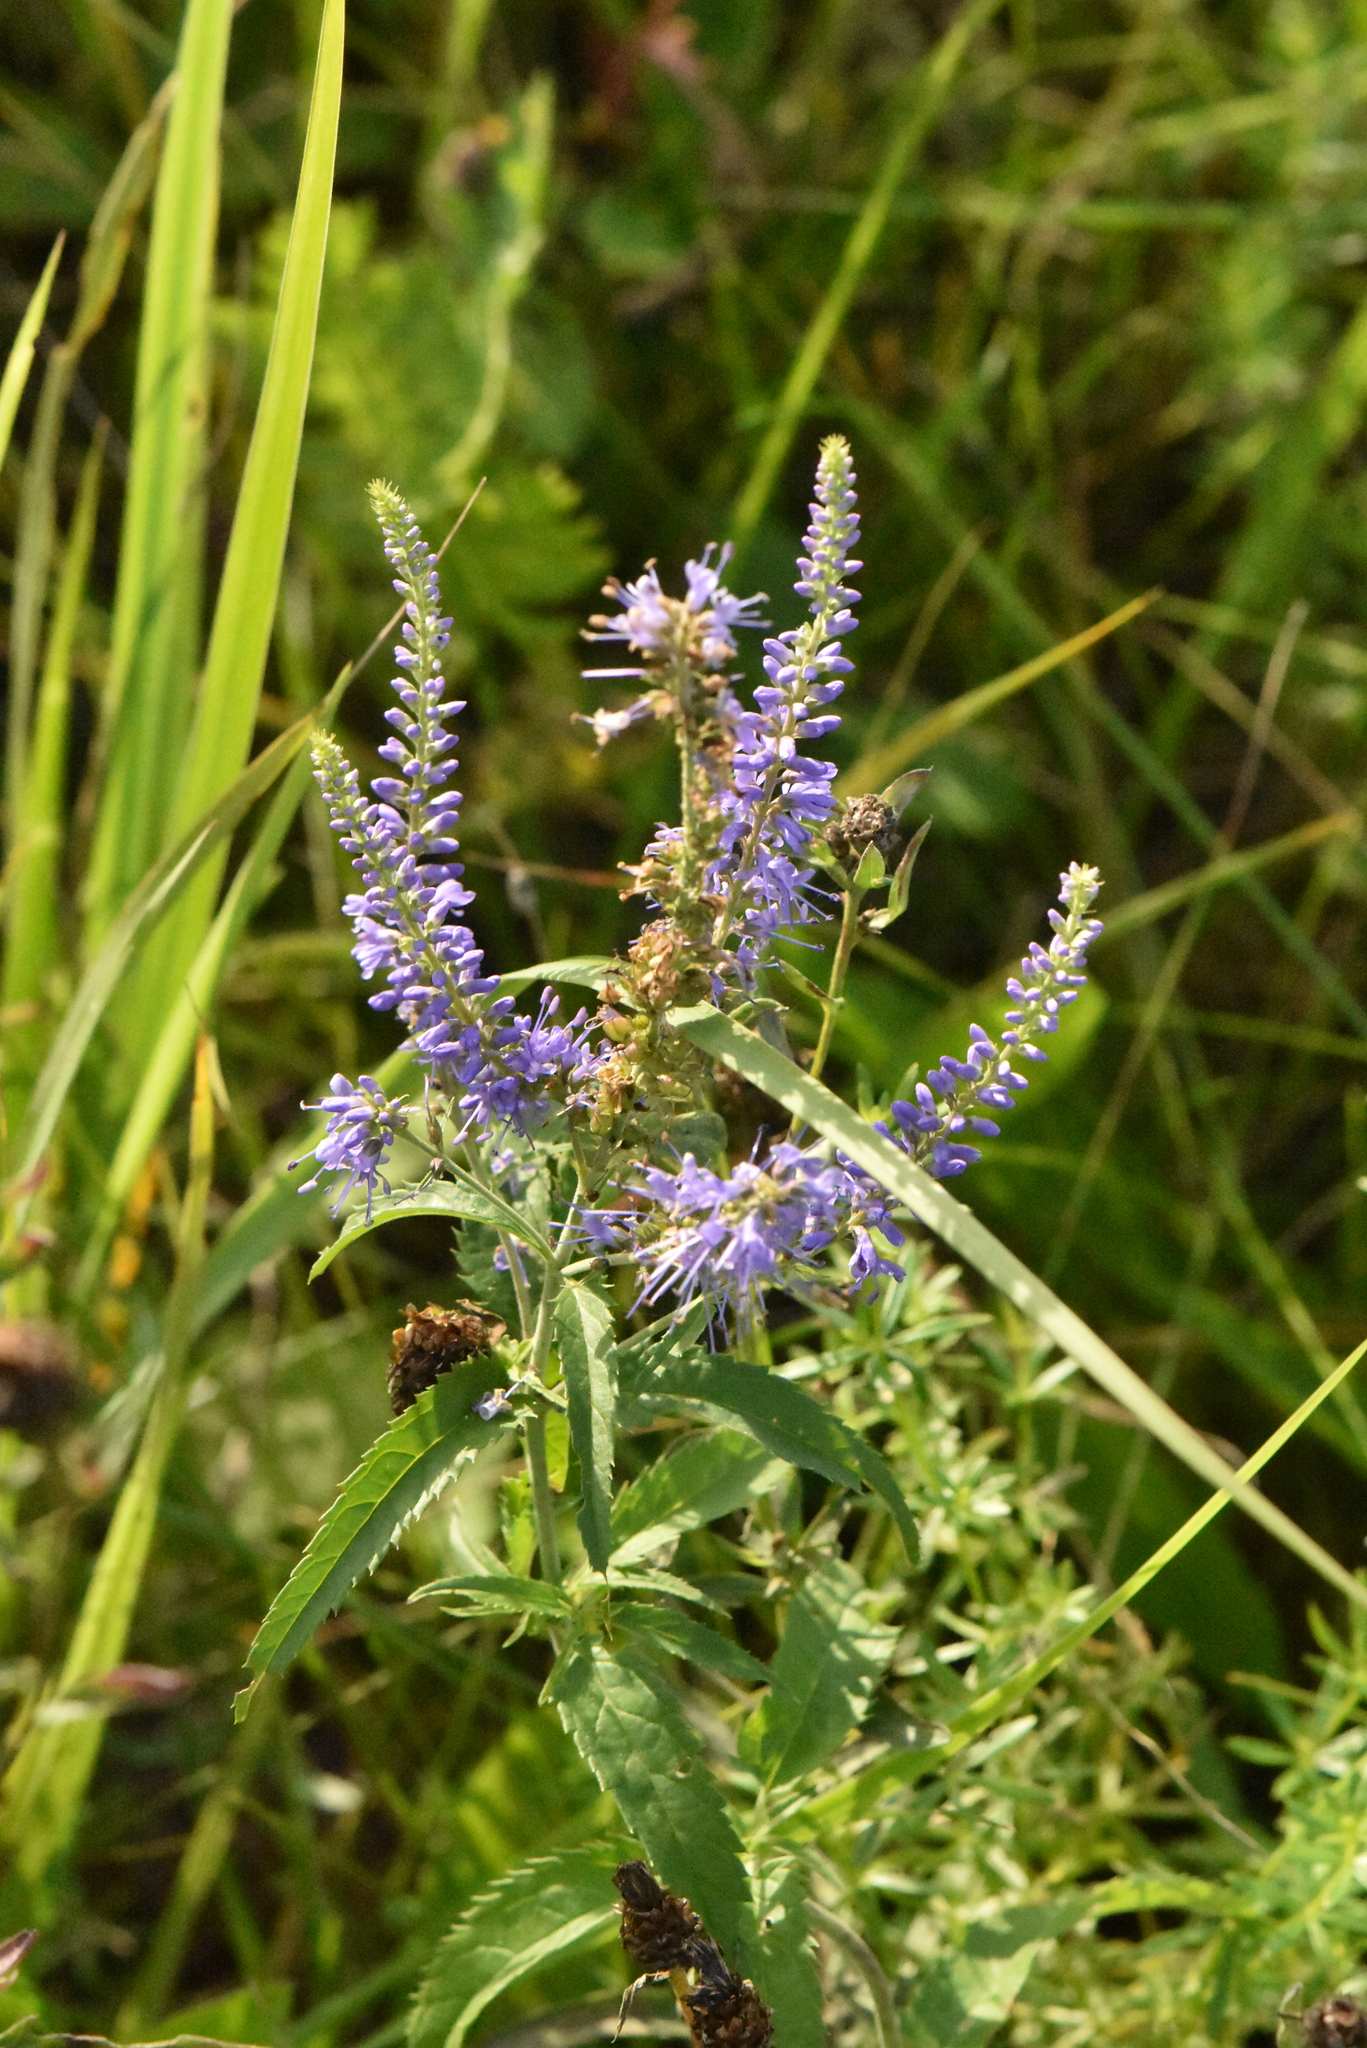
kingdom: Plantae
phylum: Tracheophyta
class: Magnoliopsida
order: Lamiales
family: Plantaginaceae
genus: Veronica
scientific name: Veronica longifolia
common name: Garden speedwell
